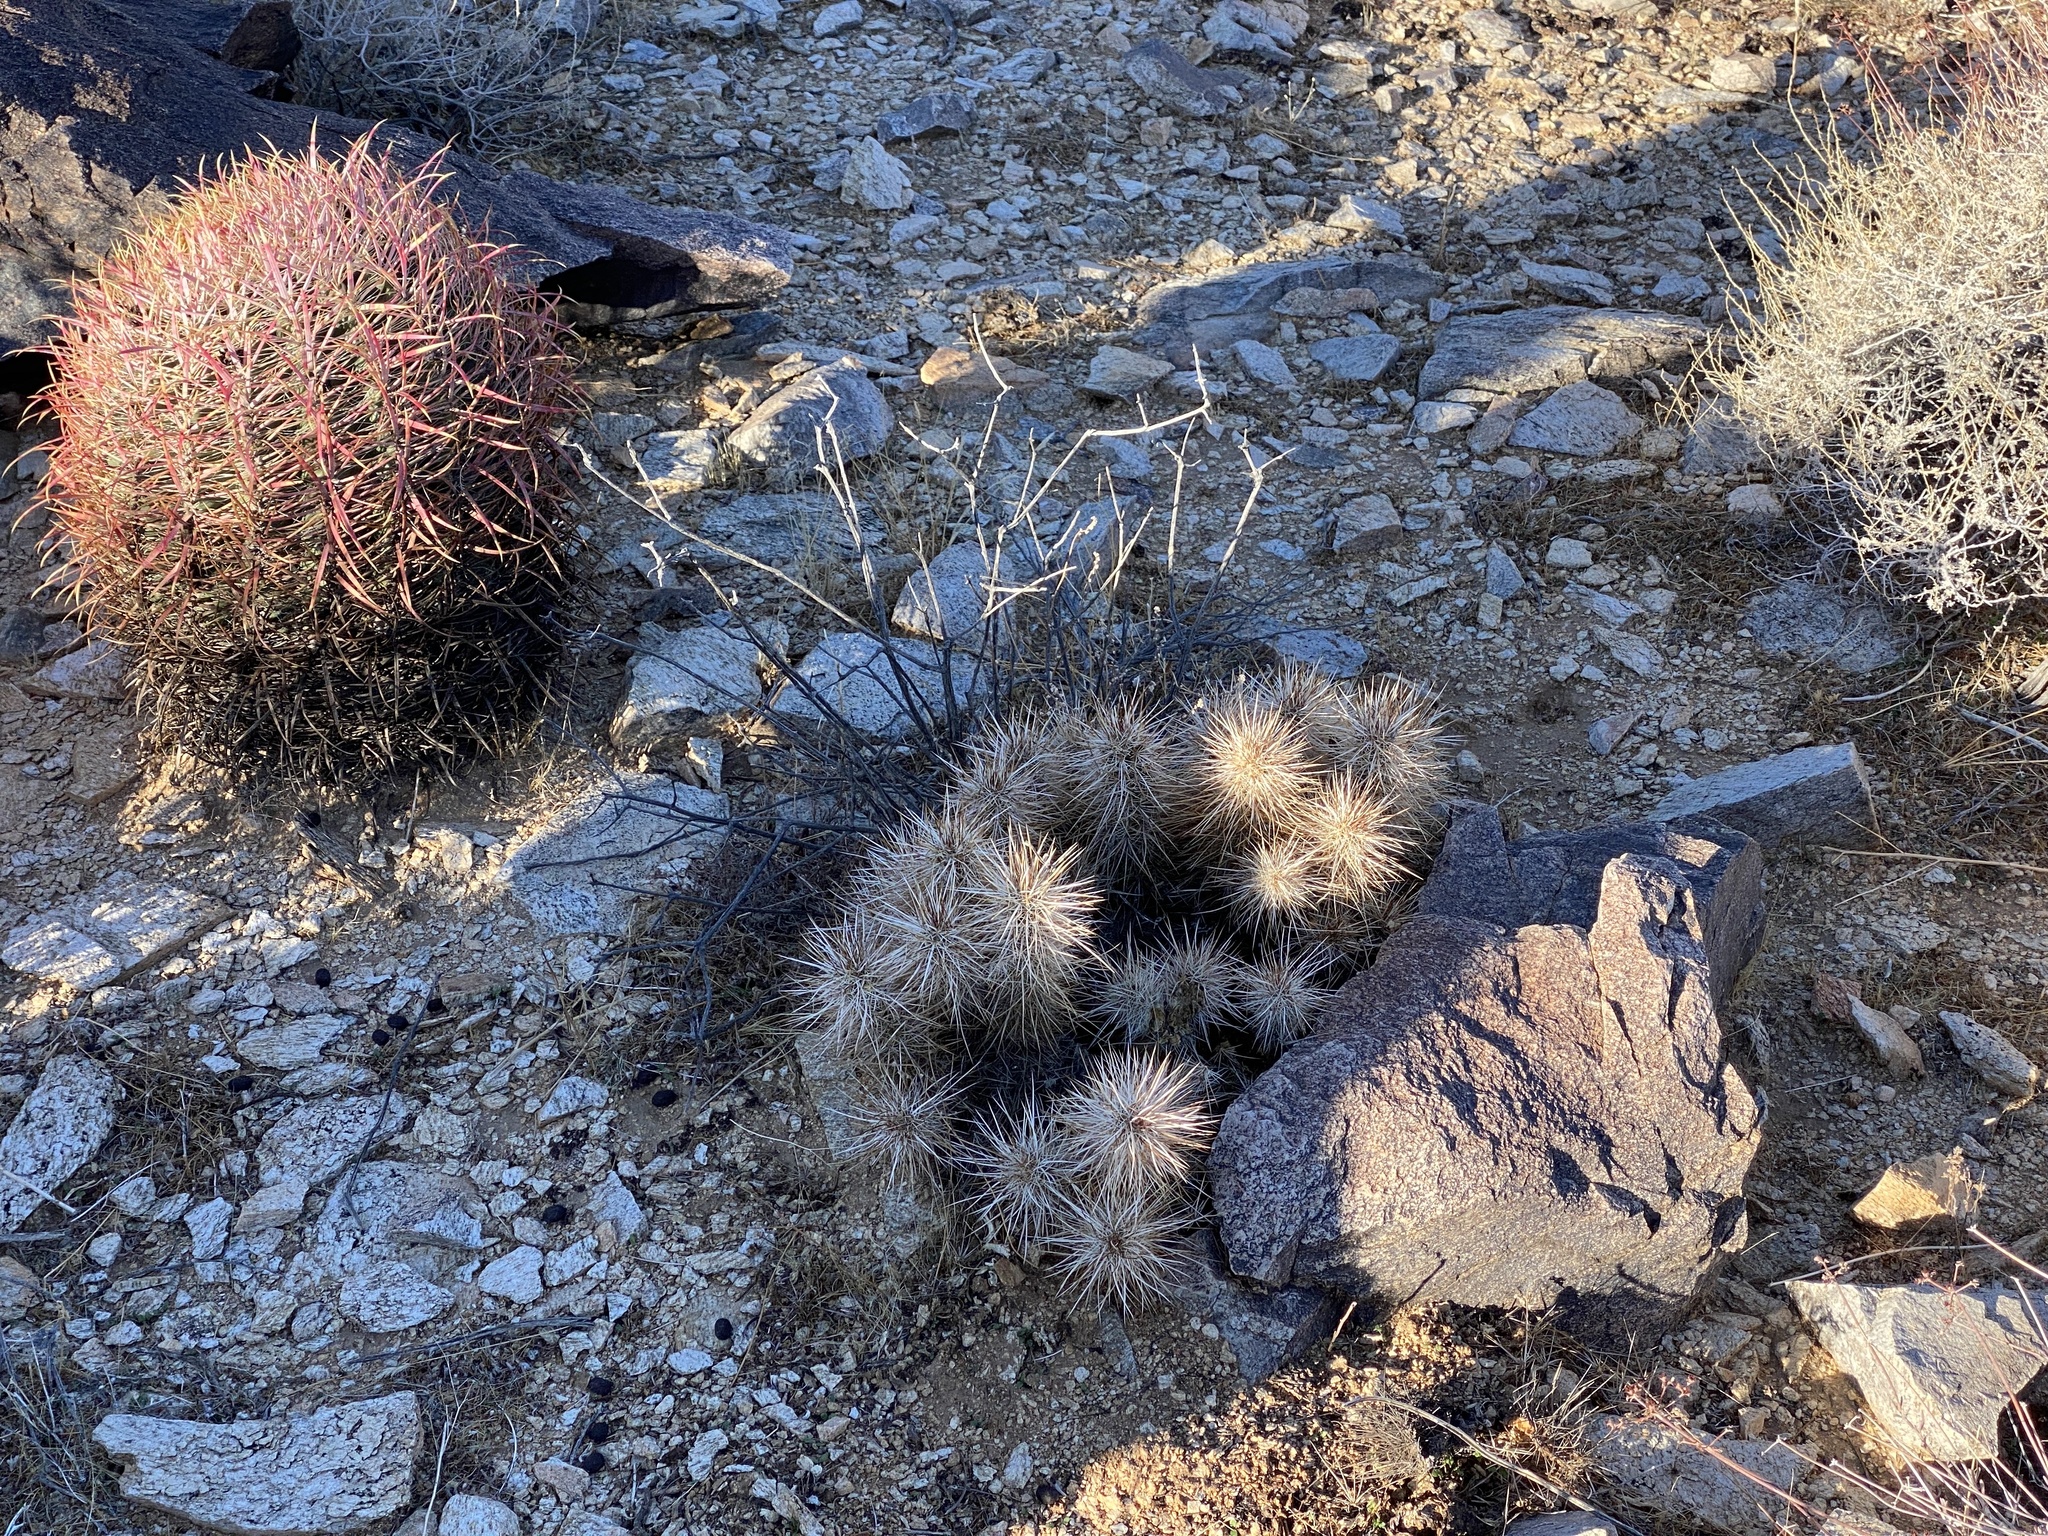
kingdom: Plantae
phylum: Tracheophyta
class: Magnoliopsida
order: Caryophyllales
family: Cactaceae
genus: Echinocereus
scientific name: Echinocereus engelmannii
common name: Engelmann's hedgehog cactus
